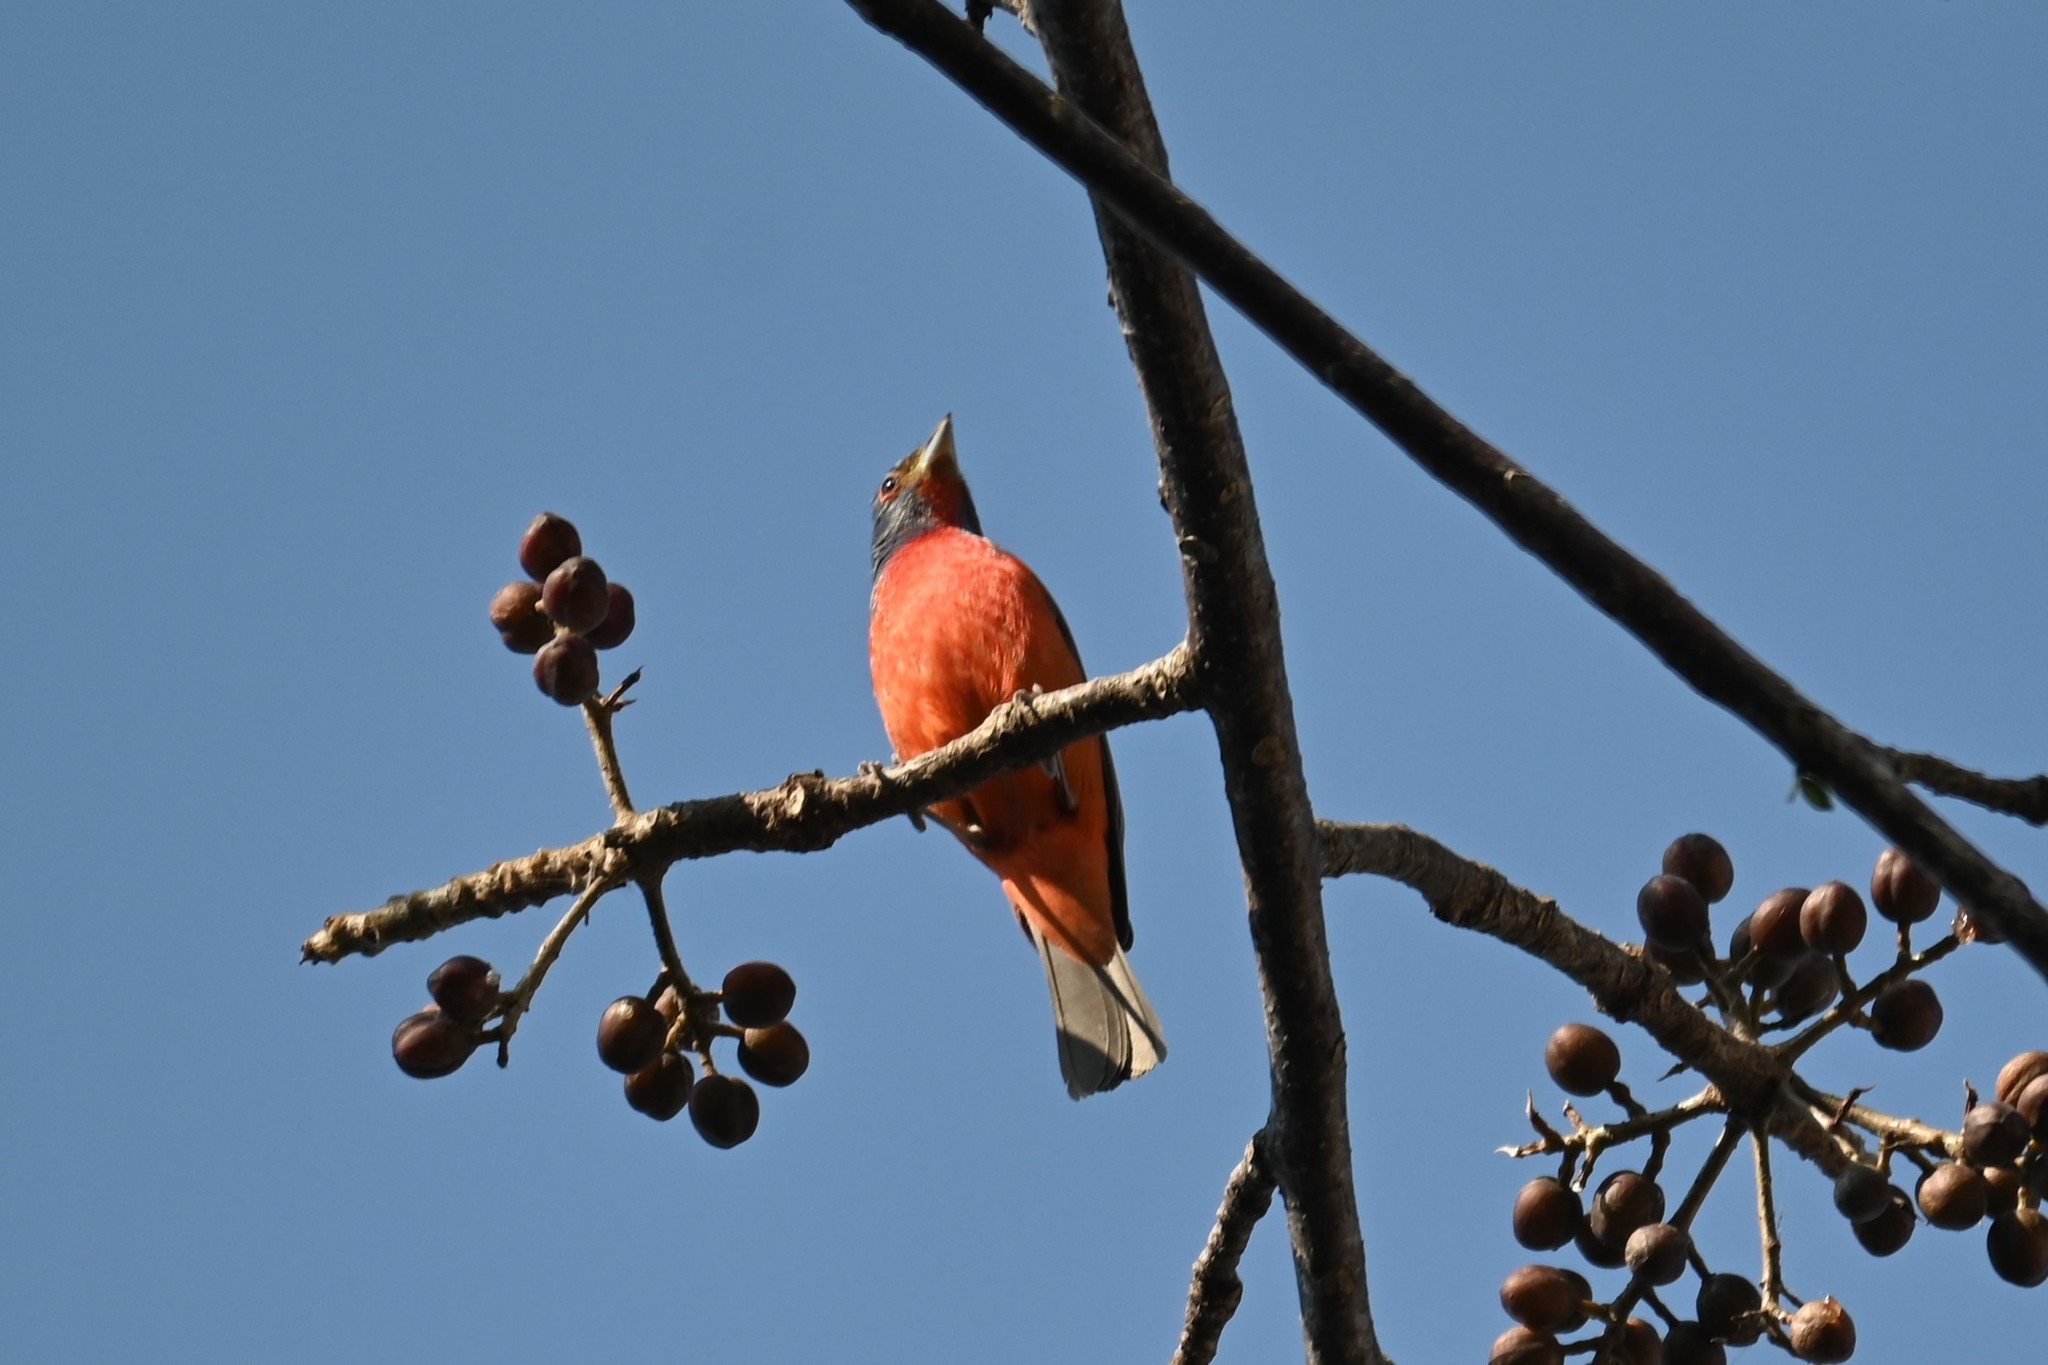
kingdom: Animalia
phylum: Chordata
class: Aves
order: Passeriformes
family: Cardinalidae
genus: Passerina
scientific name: Passerina ciris
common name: Painted bunting
